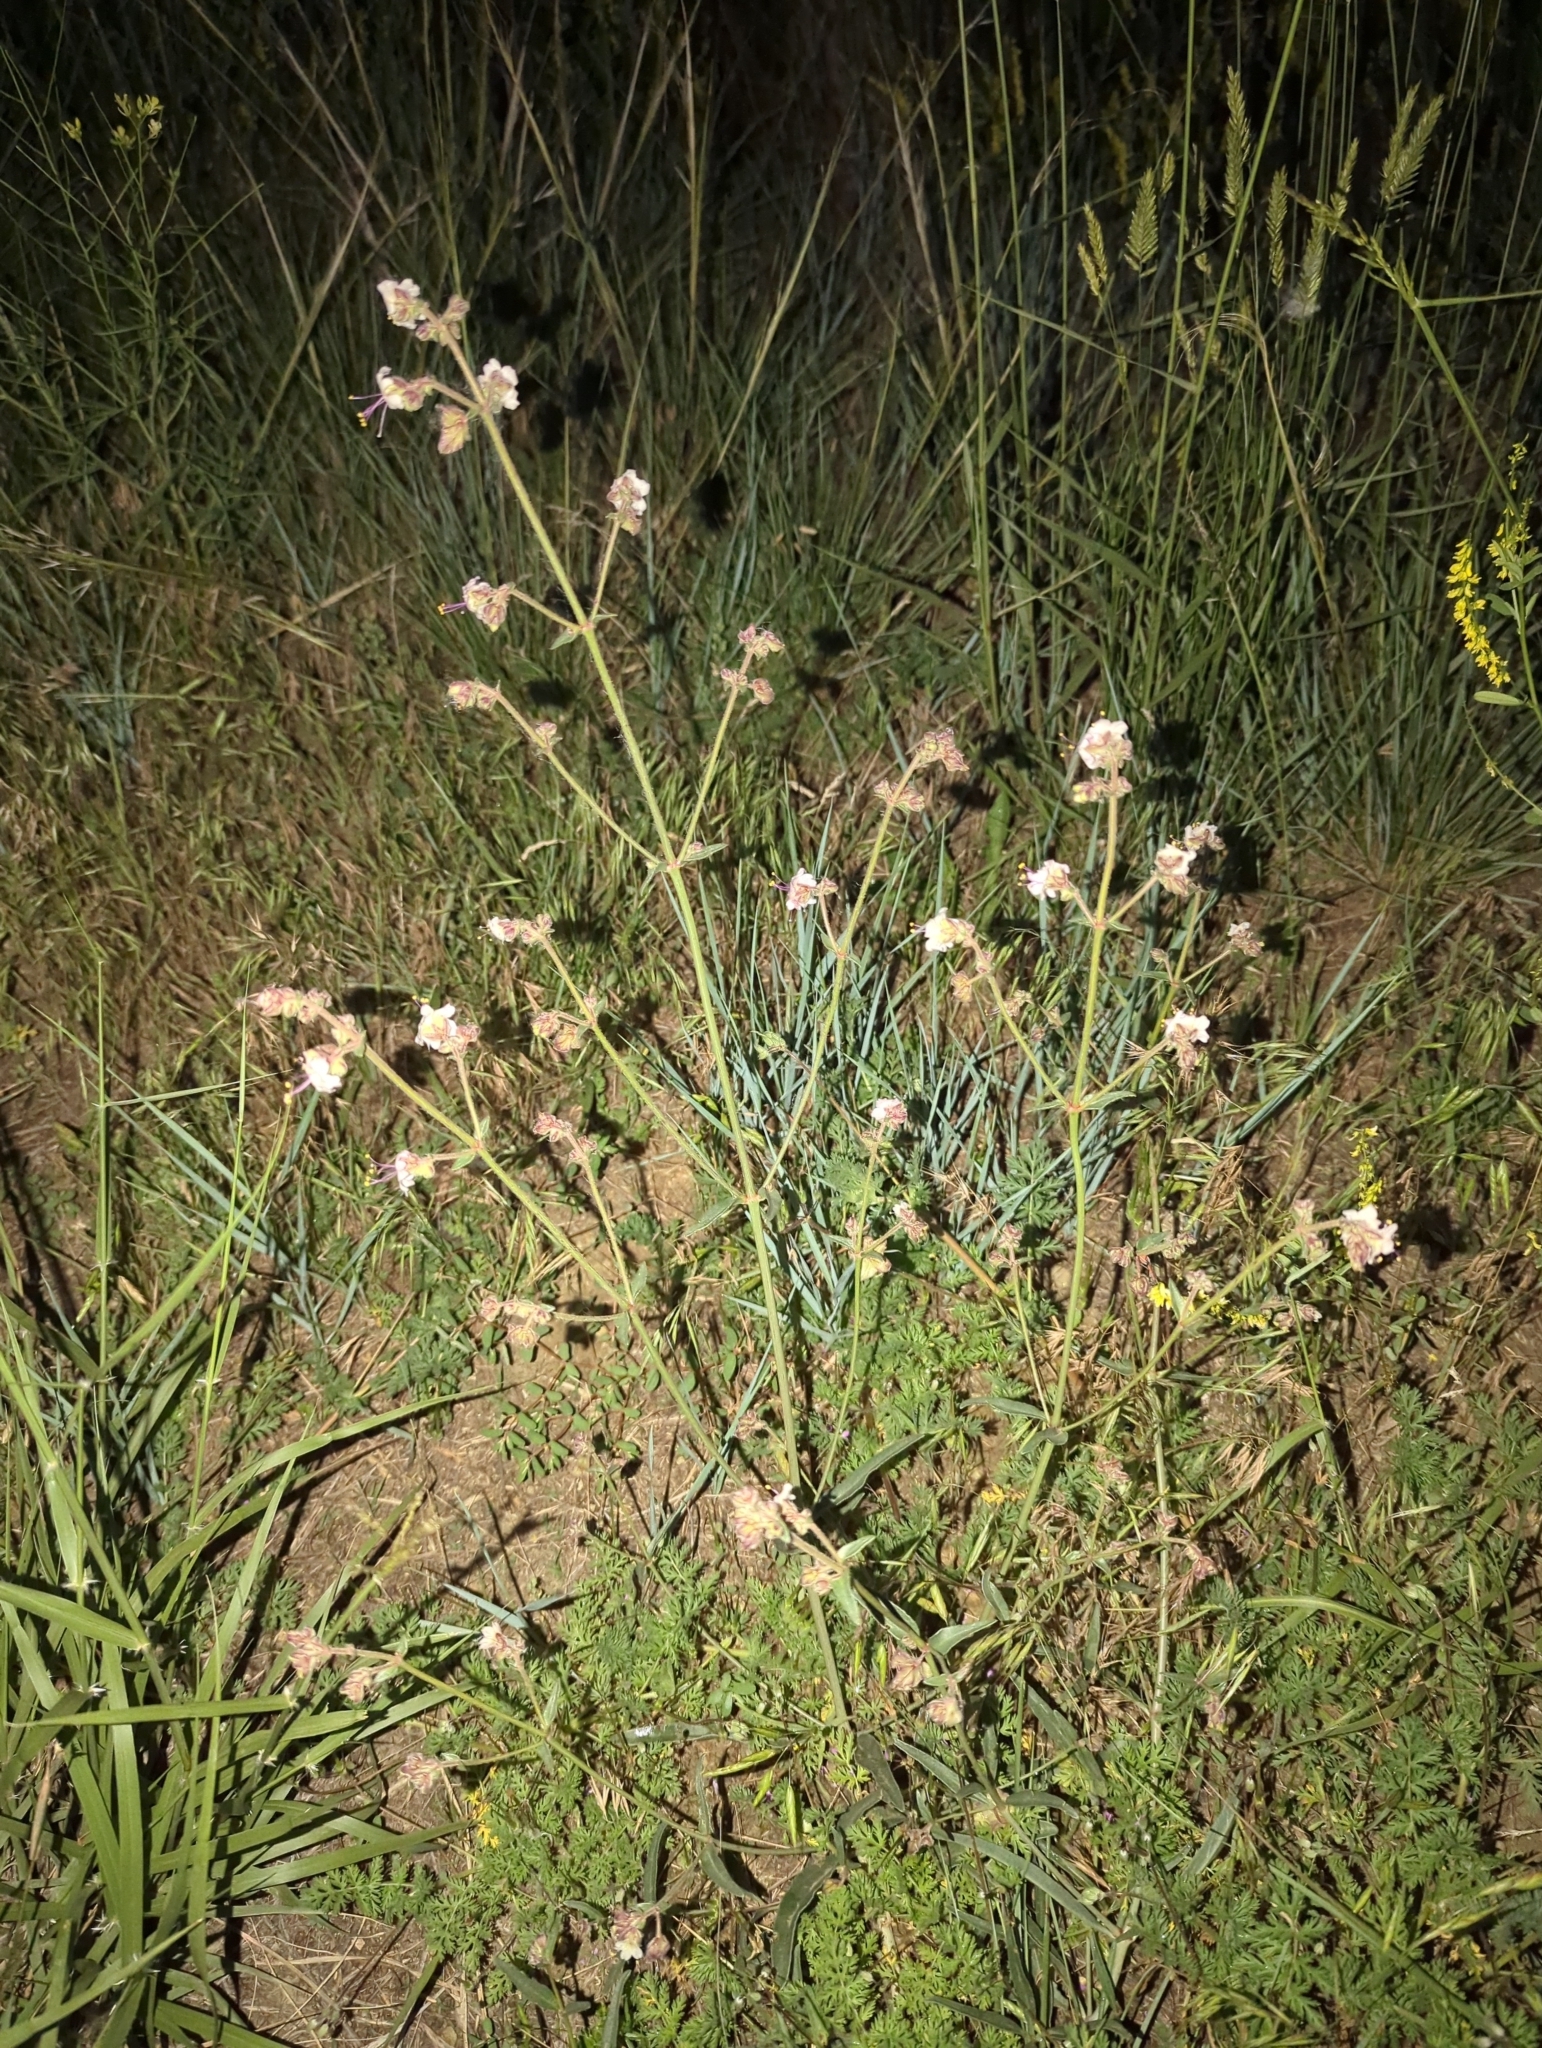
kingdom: Plantae
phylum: Tracheophyta
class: Magnoliopsida
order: Caryophyllales
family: Nyctaginaceae
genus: Mirabilis
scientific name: Mirabilis linearis
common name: Linear-leaved four-o'clock
